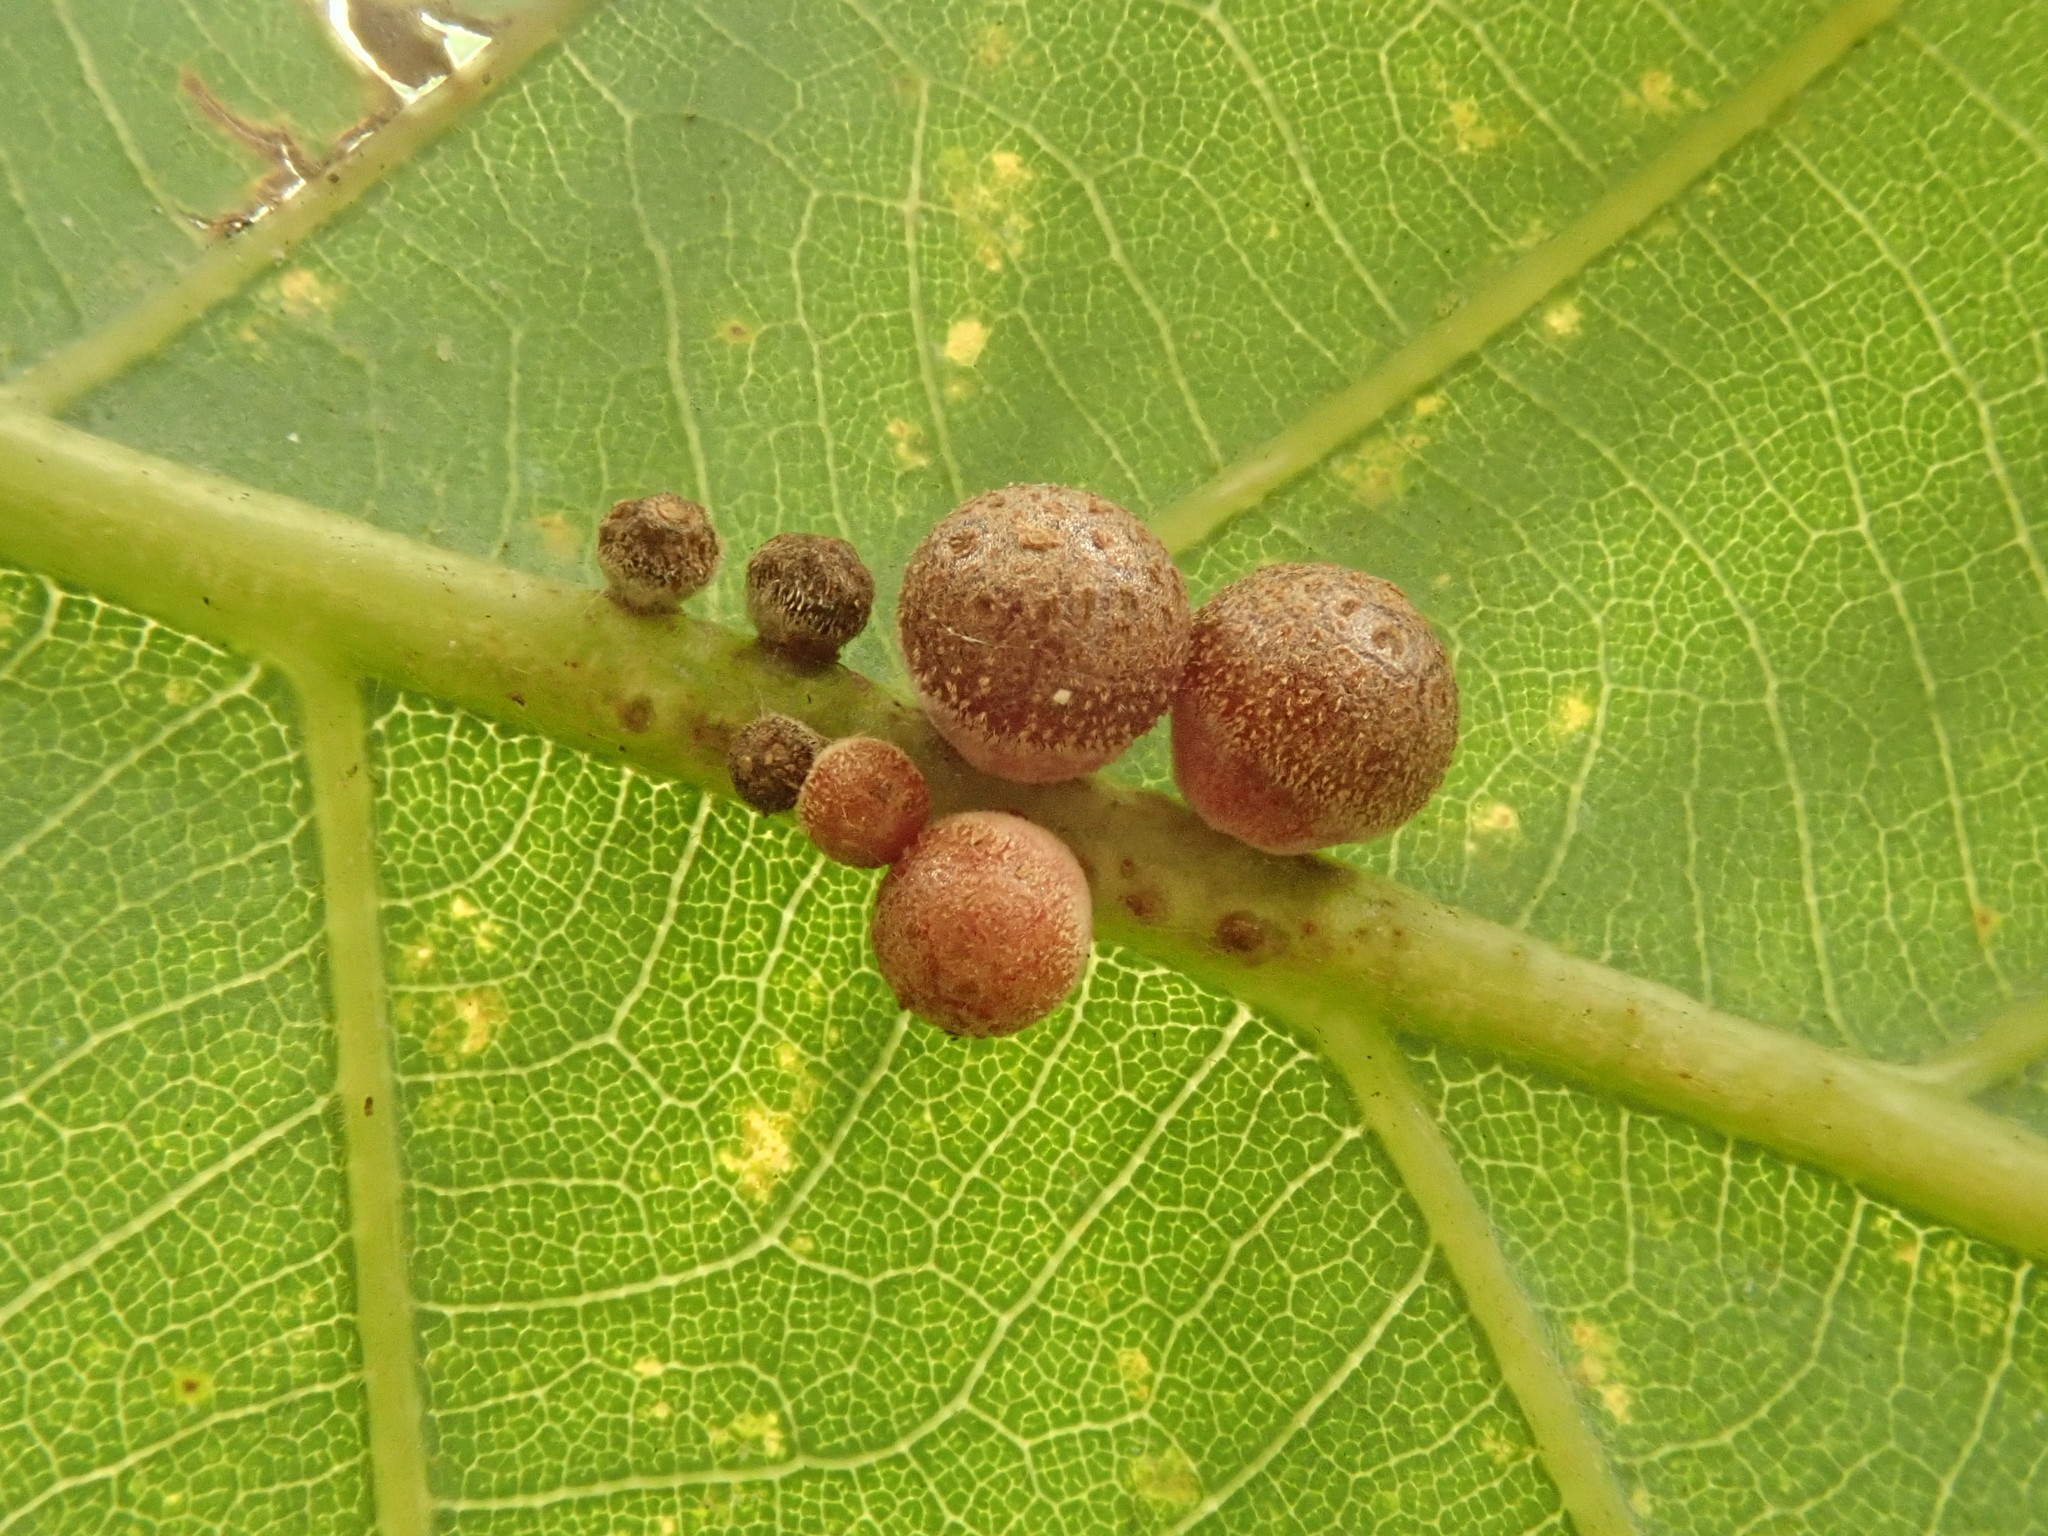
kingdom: Animalia
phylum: Arthropoda
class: Insecta
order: Hymenoptera
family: Cynipidae
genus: Andricus
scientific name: Andricus
